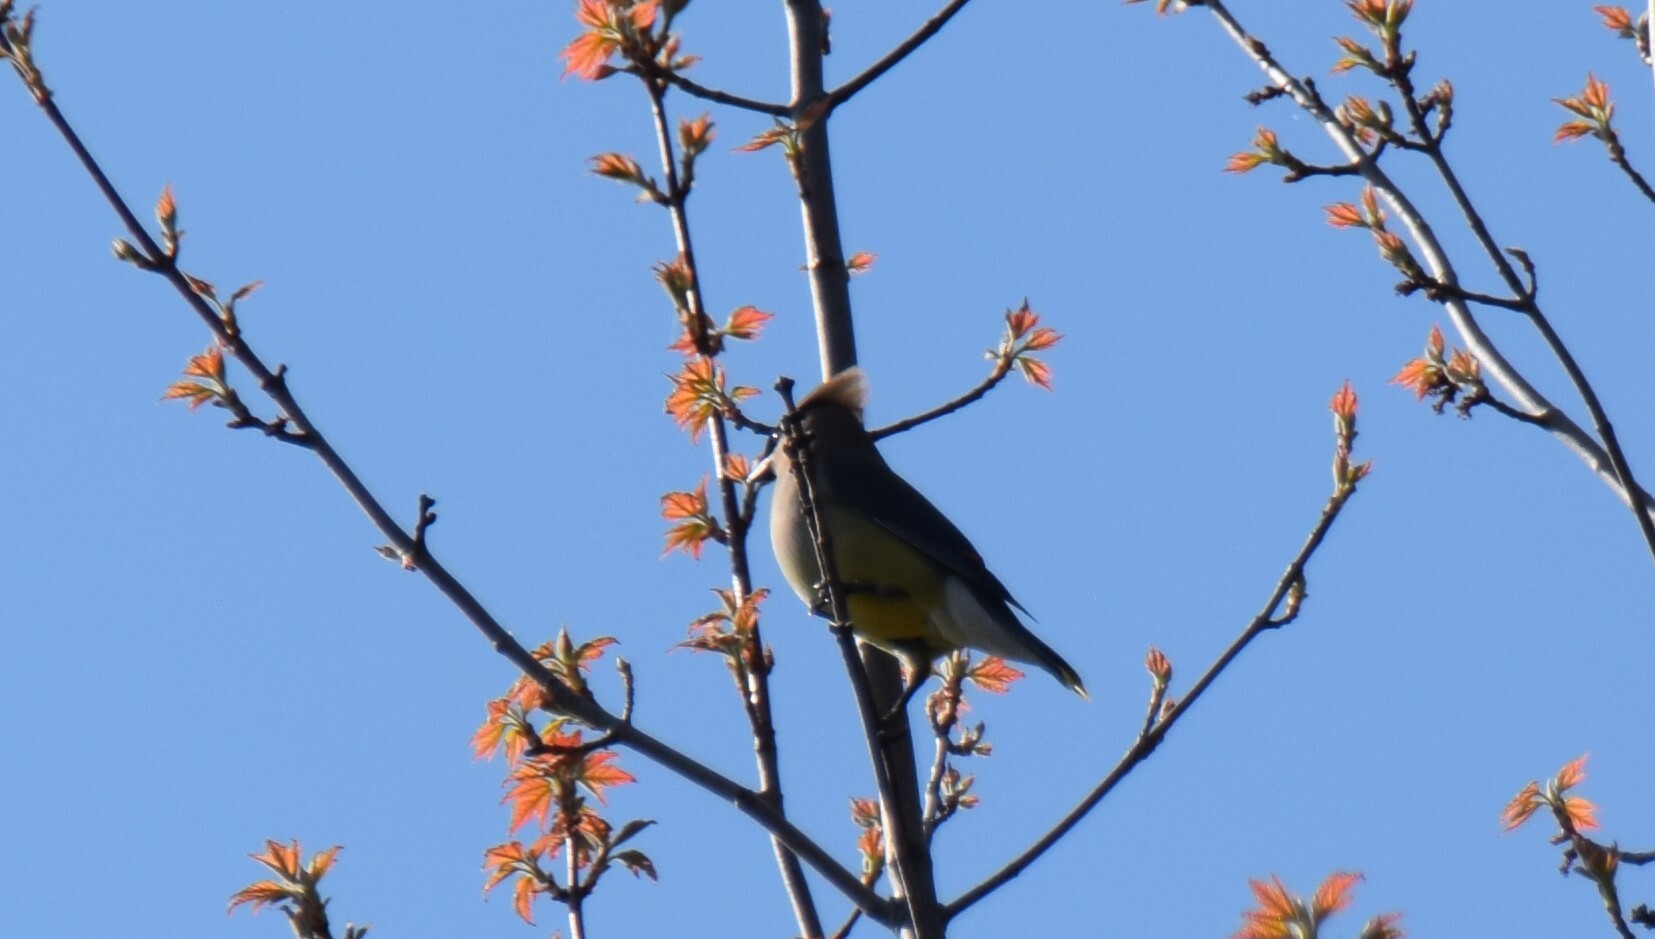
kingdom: Animalia
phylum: Chordata
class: Aves
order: Passeriformes
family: Bombycillidae
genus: Bombycilla
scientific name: Bombycilla cedrorum
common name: Cedar waxwing
